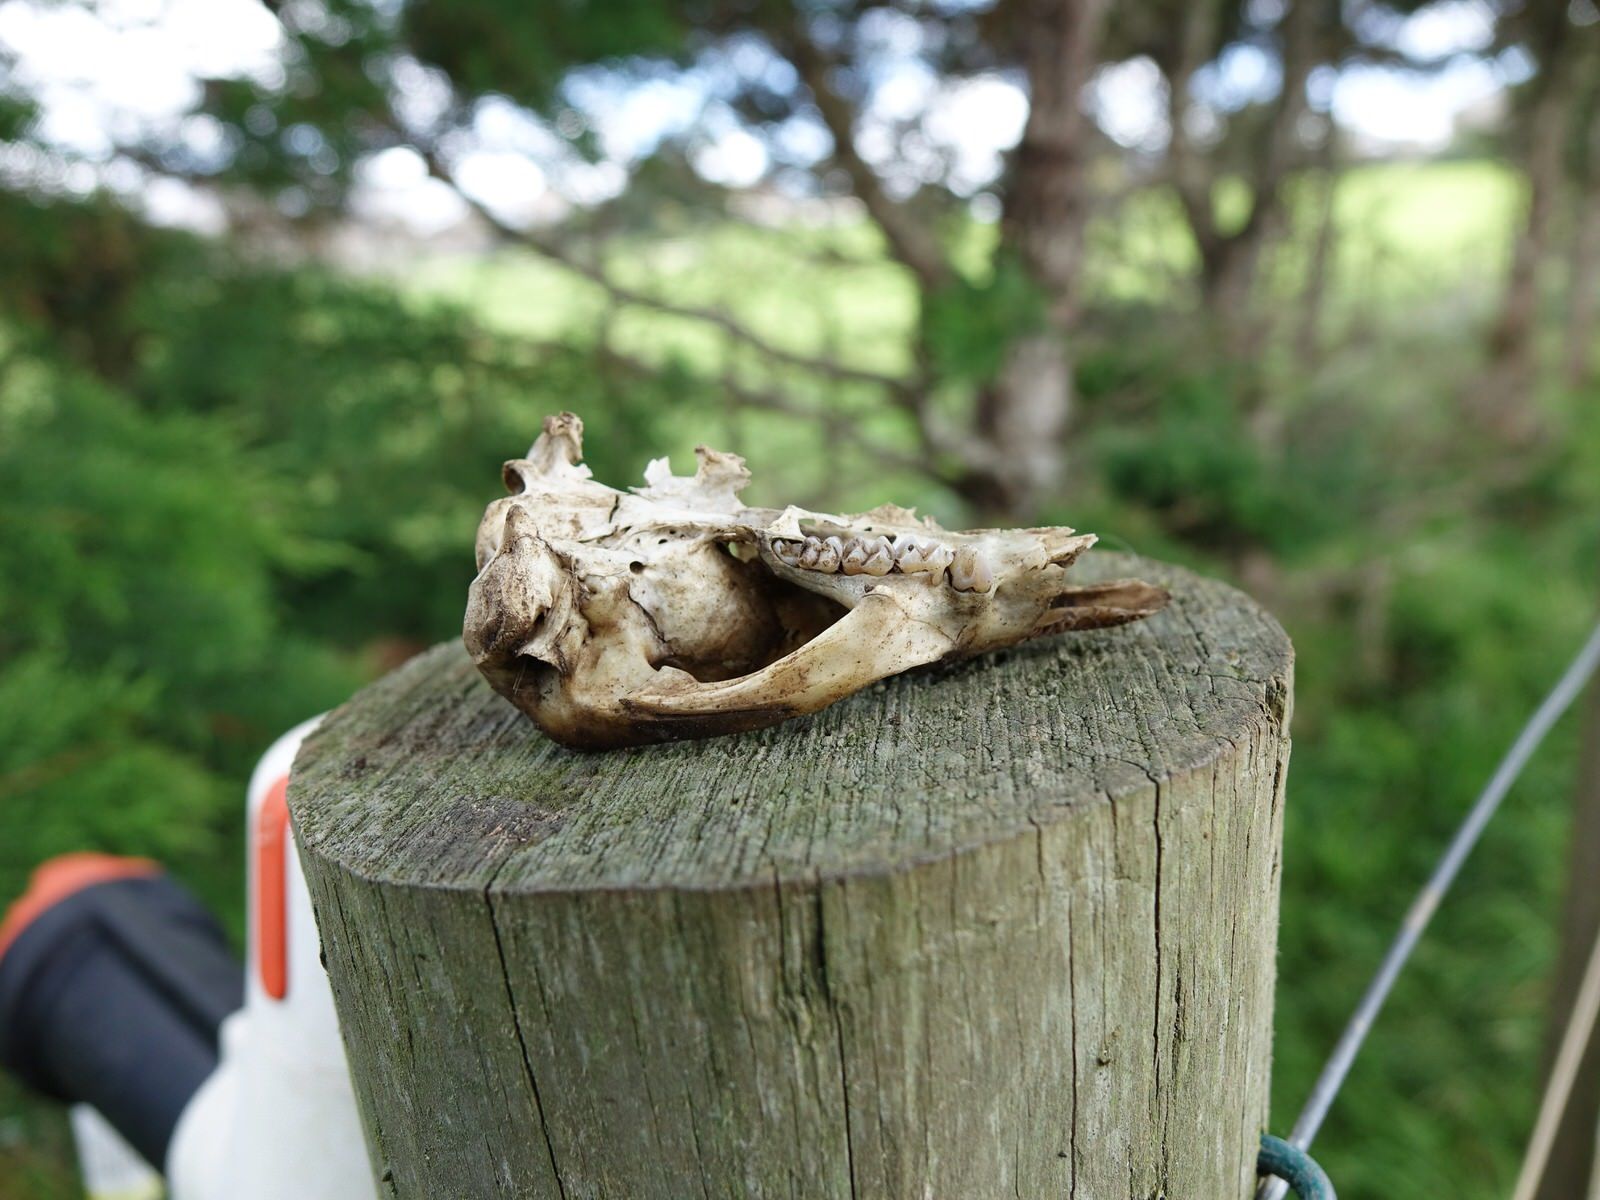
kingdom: Animalia
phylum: Chordata
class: Mammalia
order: Diprotodontia
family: Phalangeridae
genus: Trichosurus
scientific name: Trichosurus vulpecula
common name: Common brushtail
